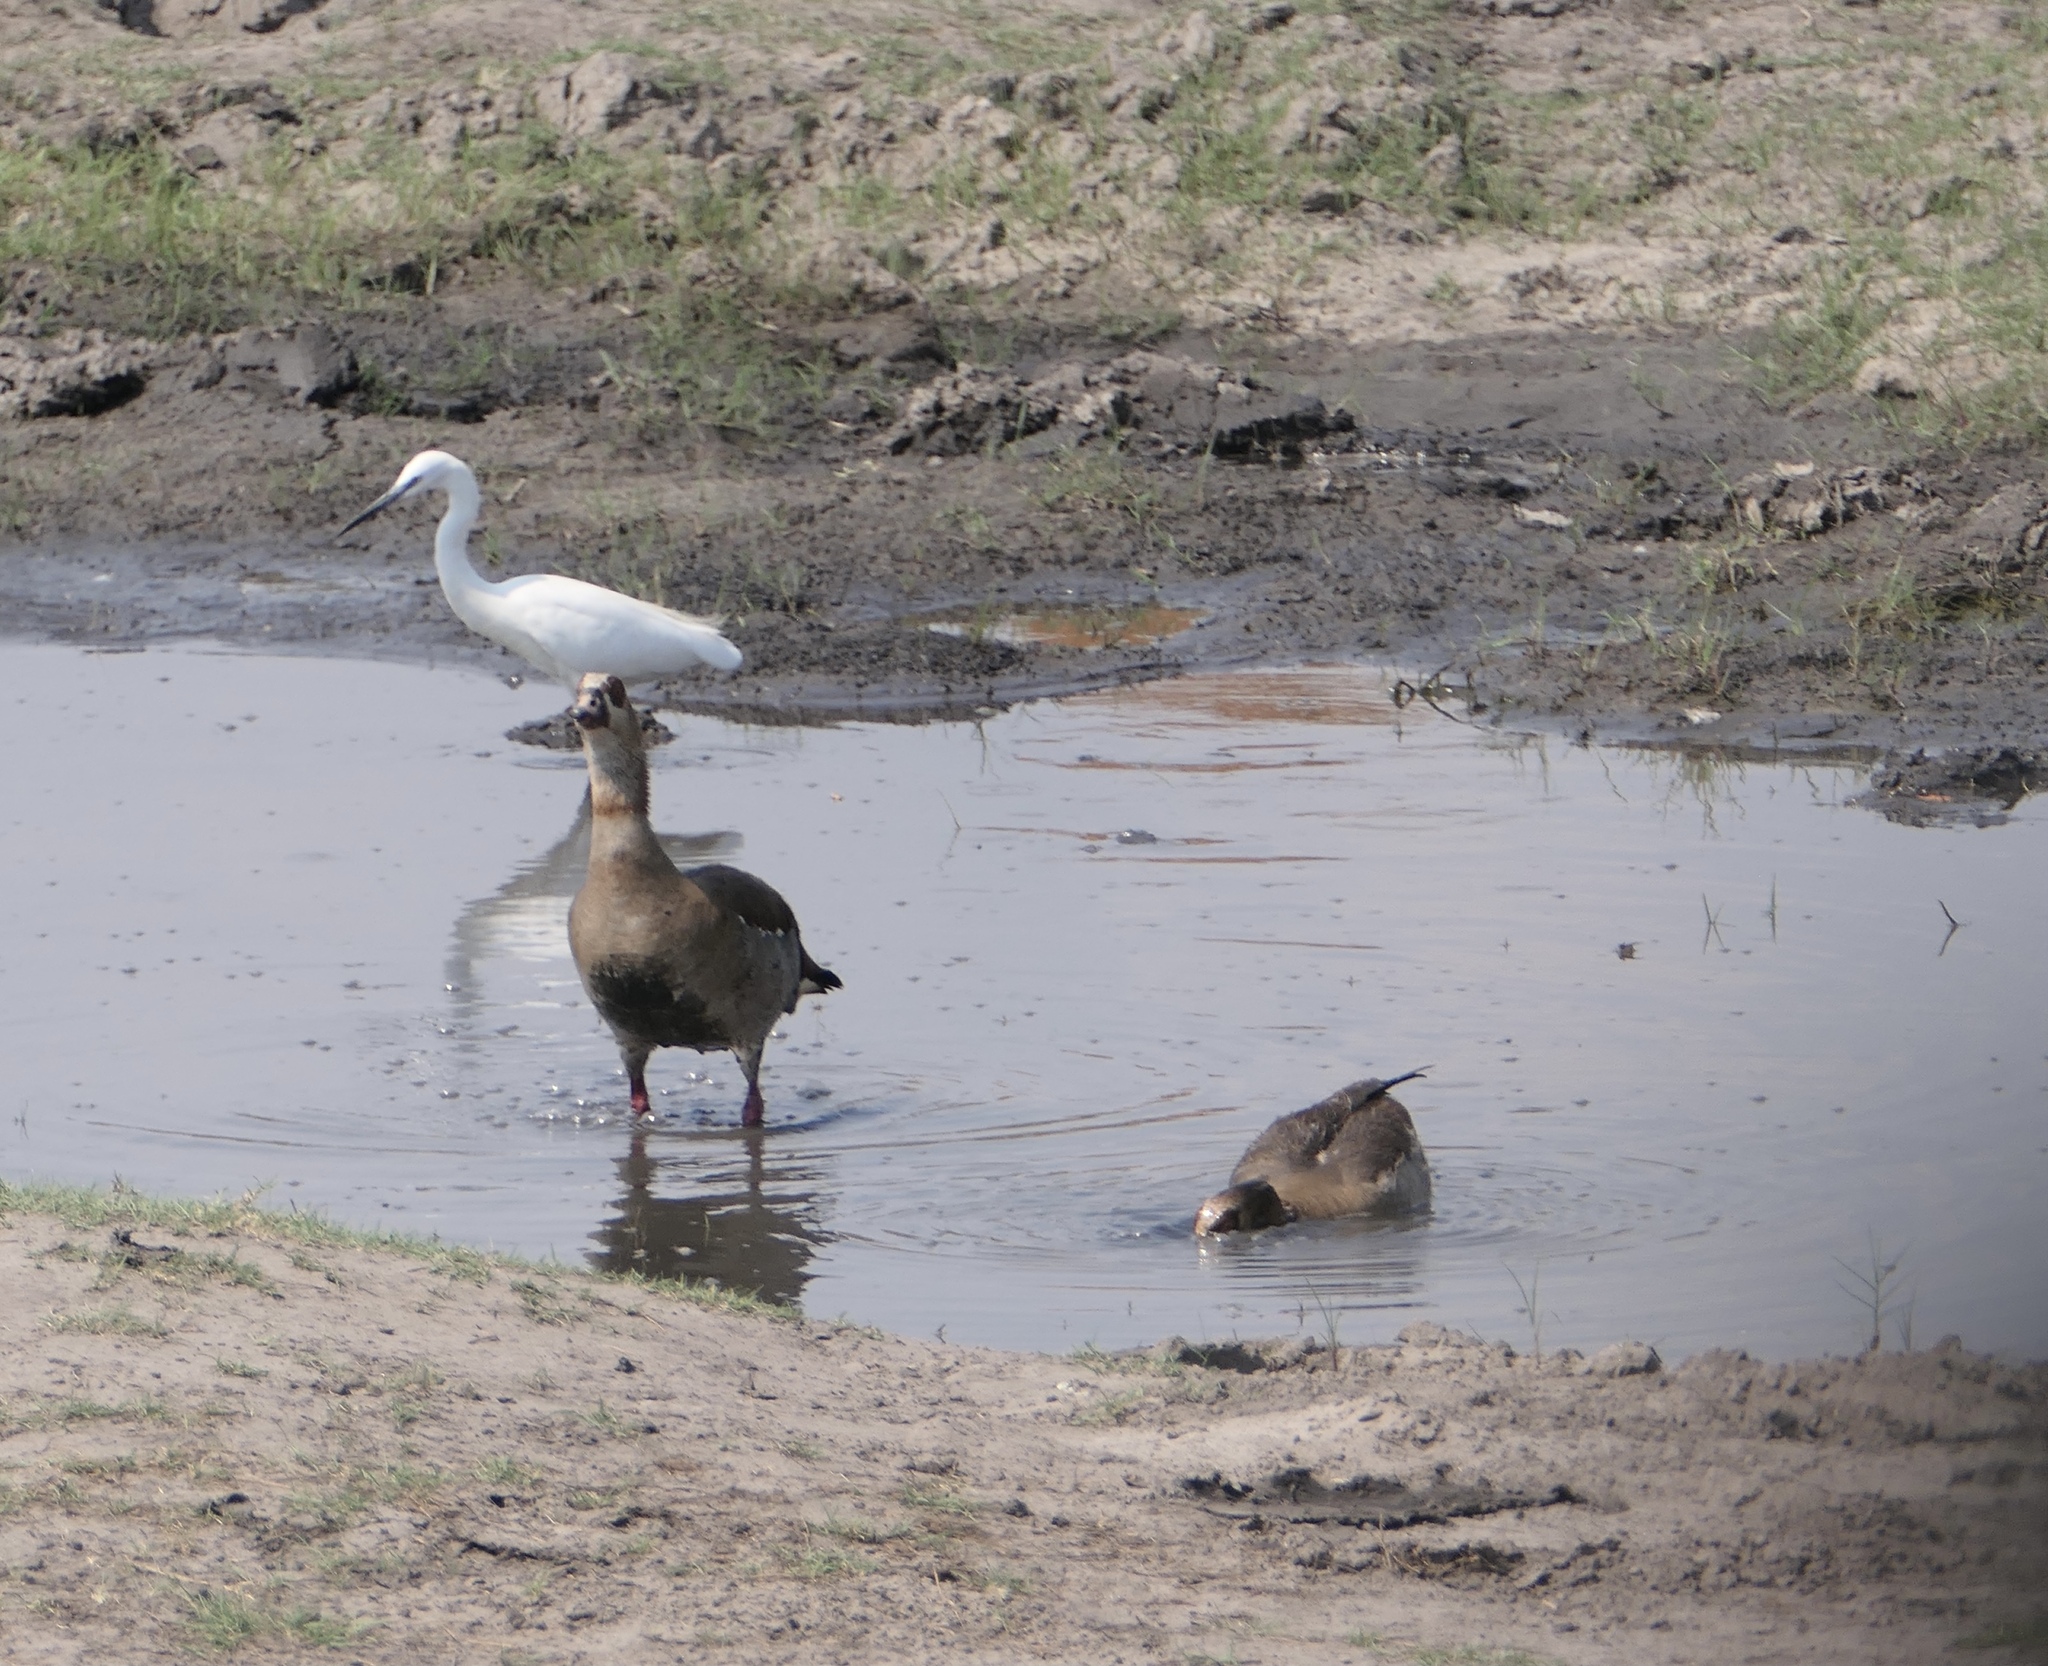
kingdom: Animalia
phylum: Chordata
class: Aves
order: Pelecaniformes
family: Ardeidae
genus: Egretta
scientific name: Egretta garzetta
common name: Little egret
